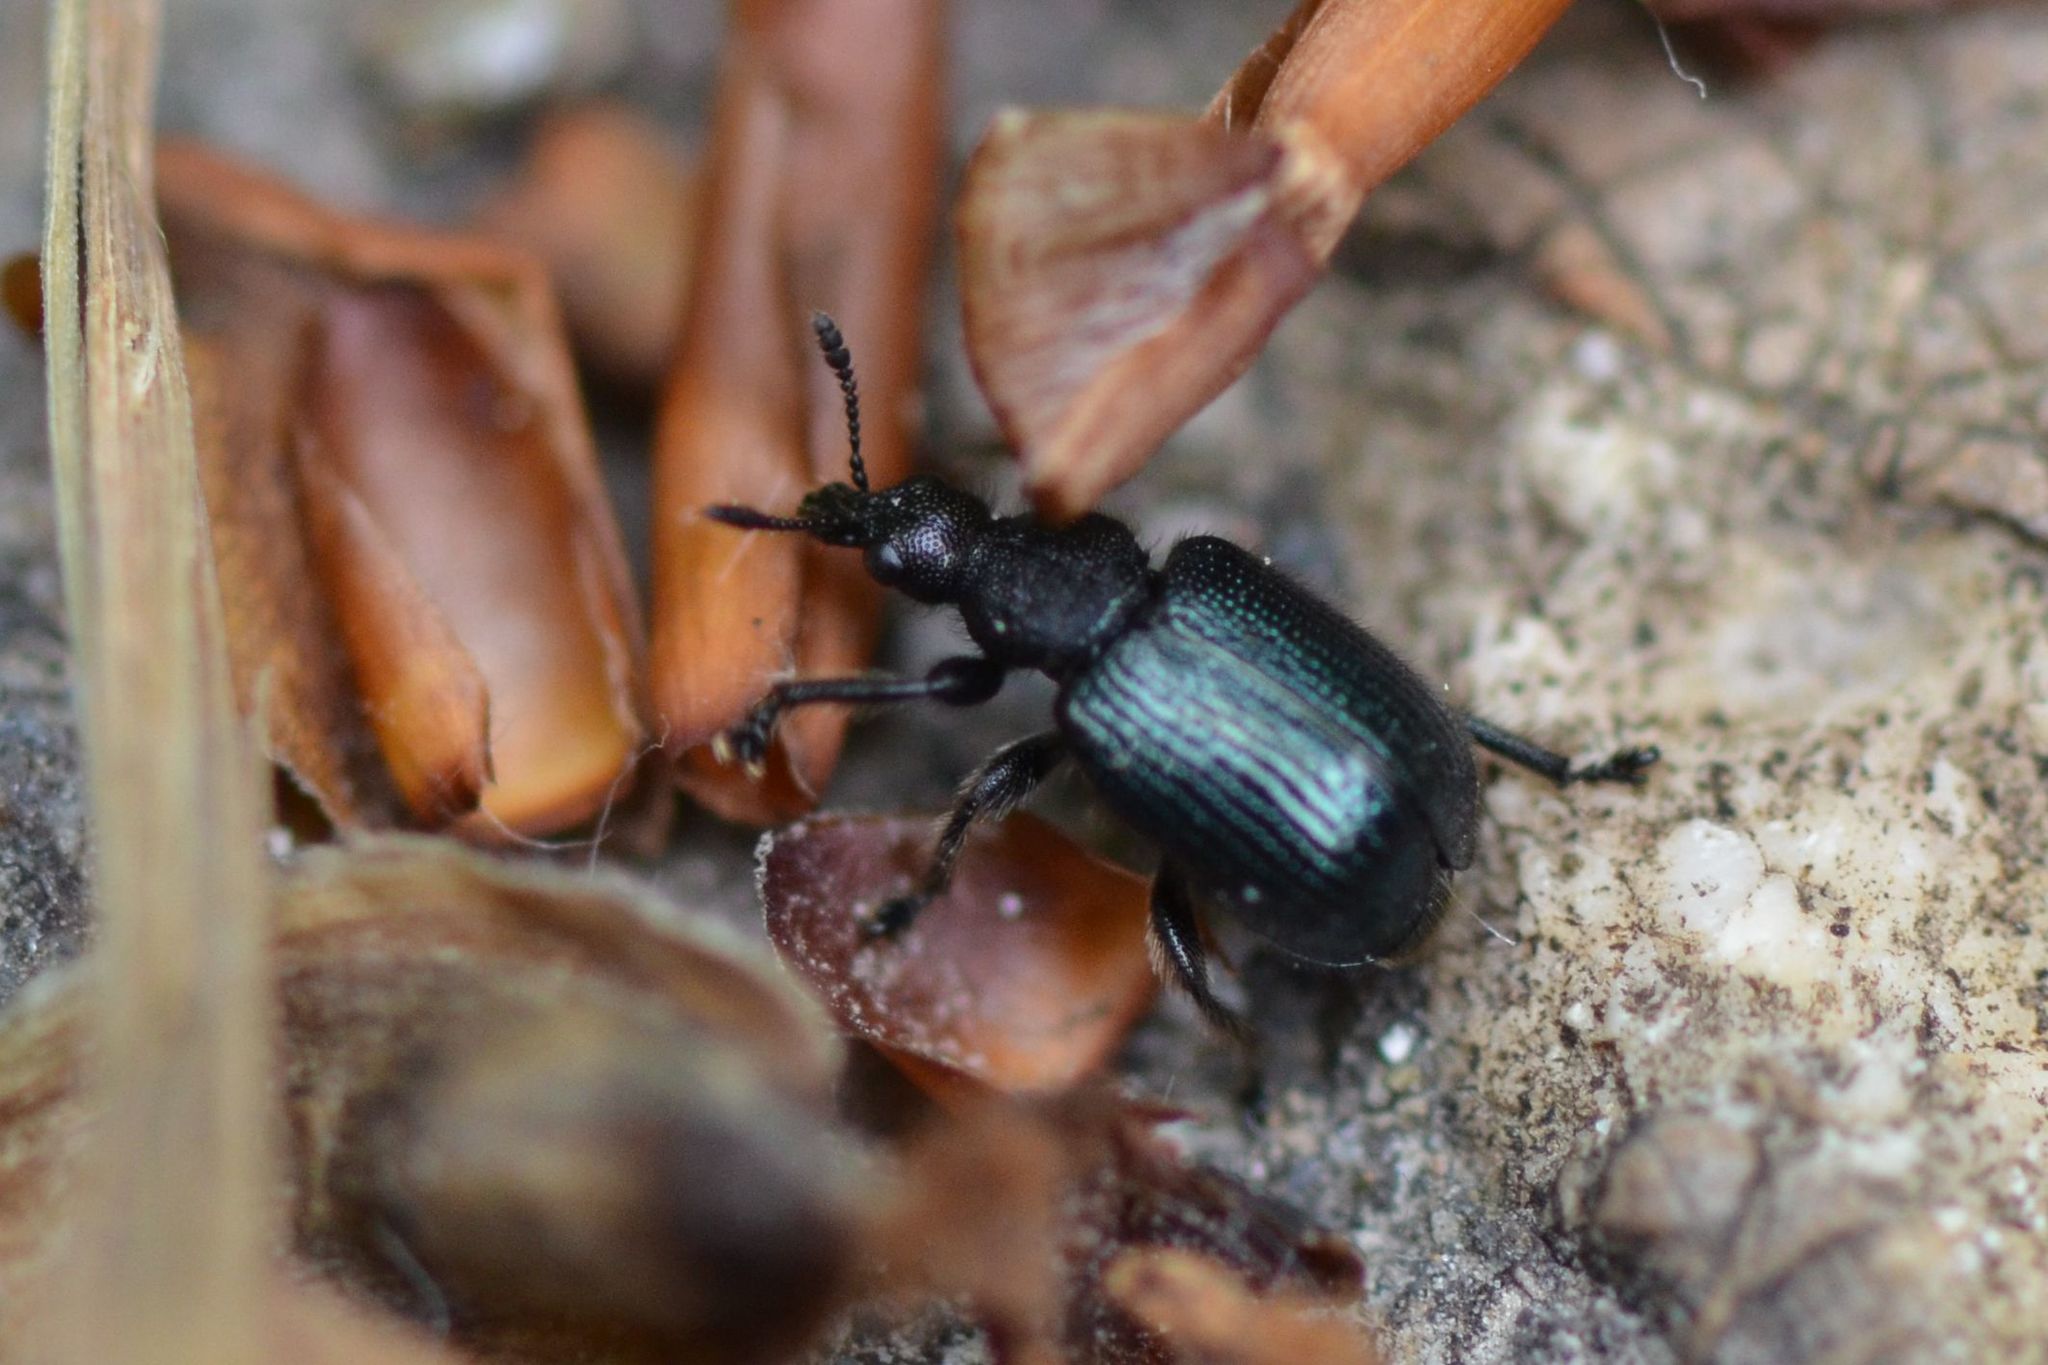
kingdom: Animalia
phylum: Arthropoda
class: Insecta
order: Coleoptera
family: Attelabidae
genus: Chonostropheus
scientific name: Chonostropheus tristis
